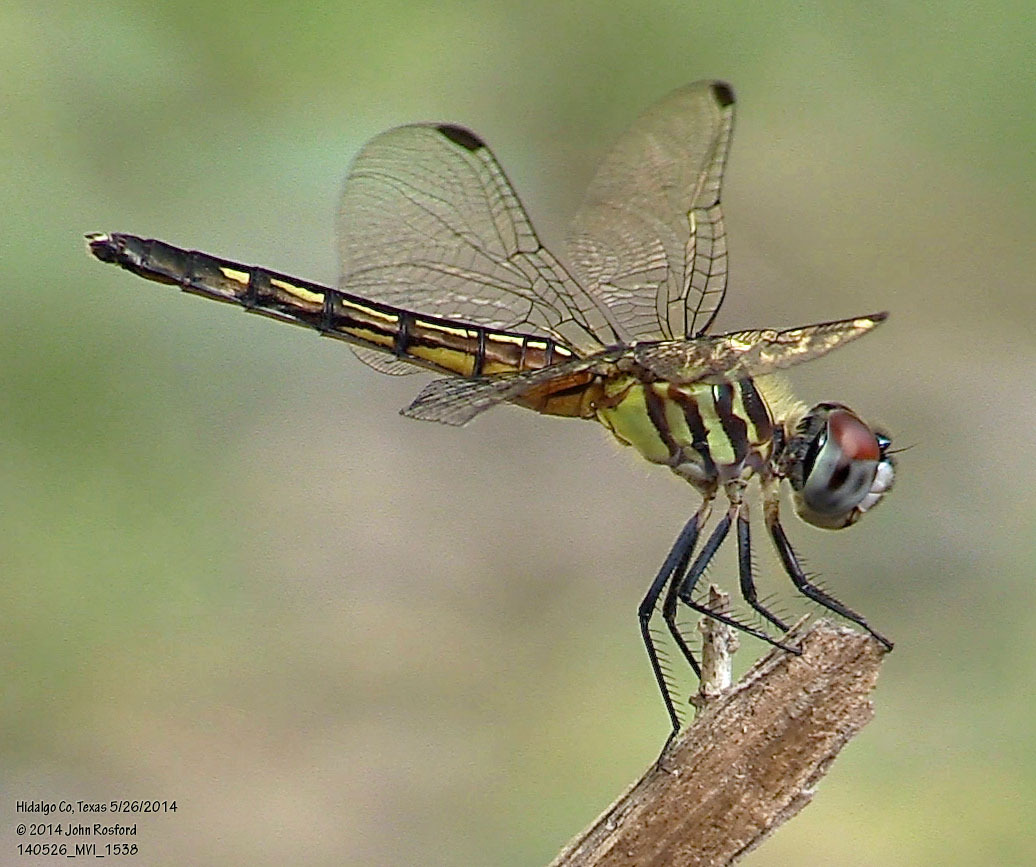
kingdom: Animalia
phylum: Arthropoda
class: Insecta
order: Odonata
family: Libellulidae
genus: Pachydiplax
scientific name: Pachydiplax longipennis
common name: Blue dasher
